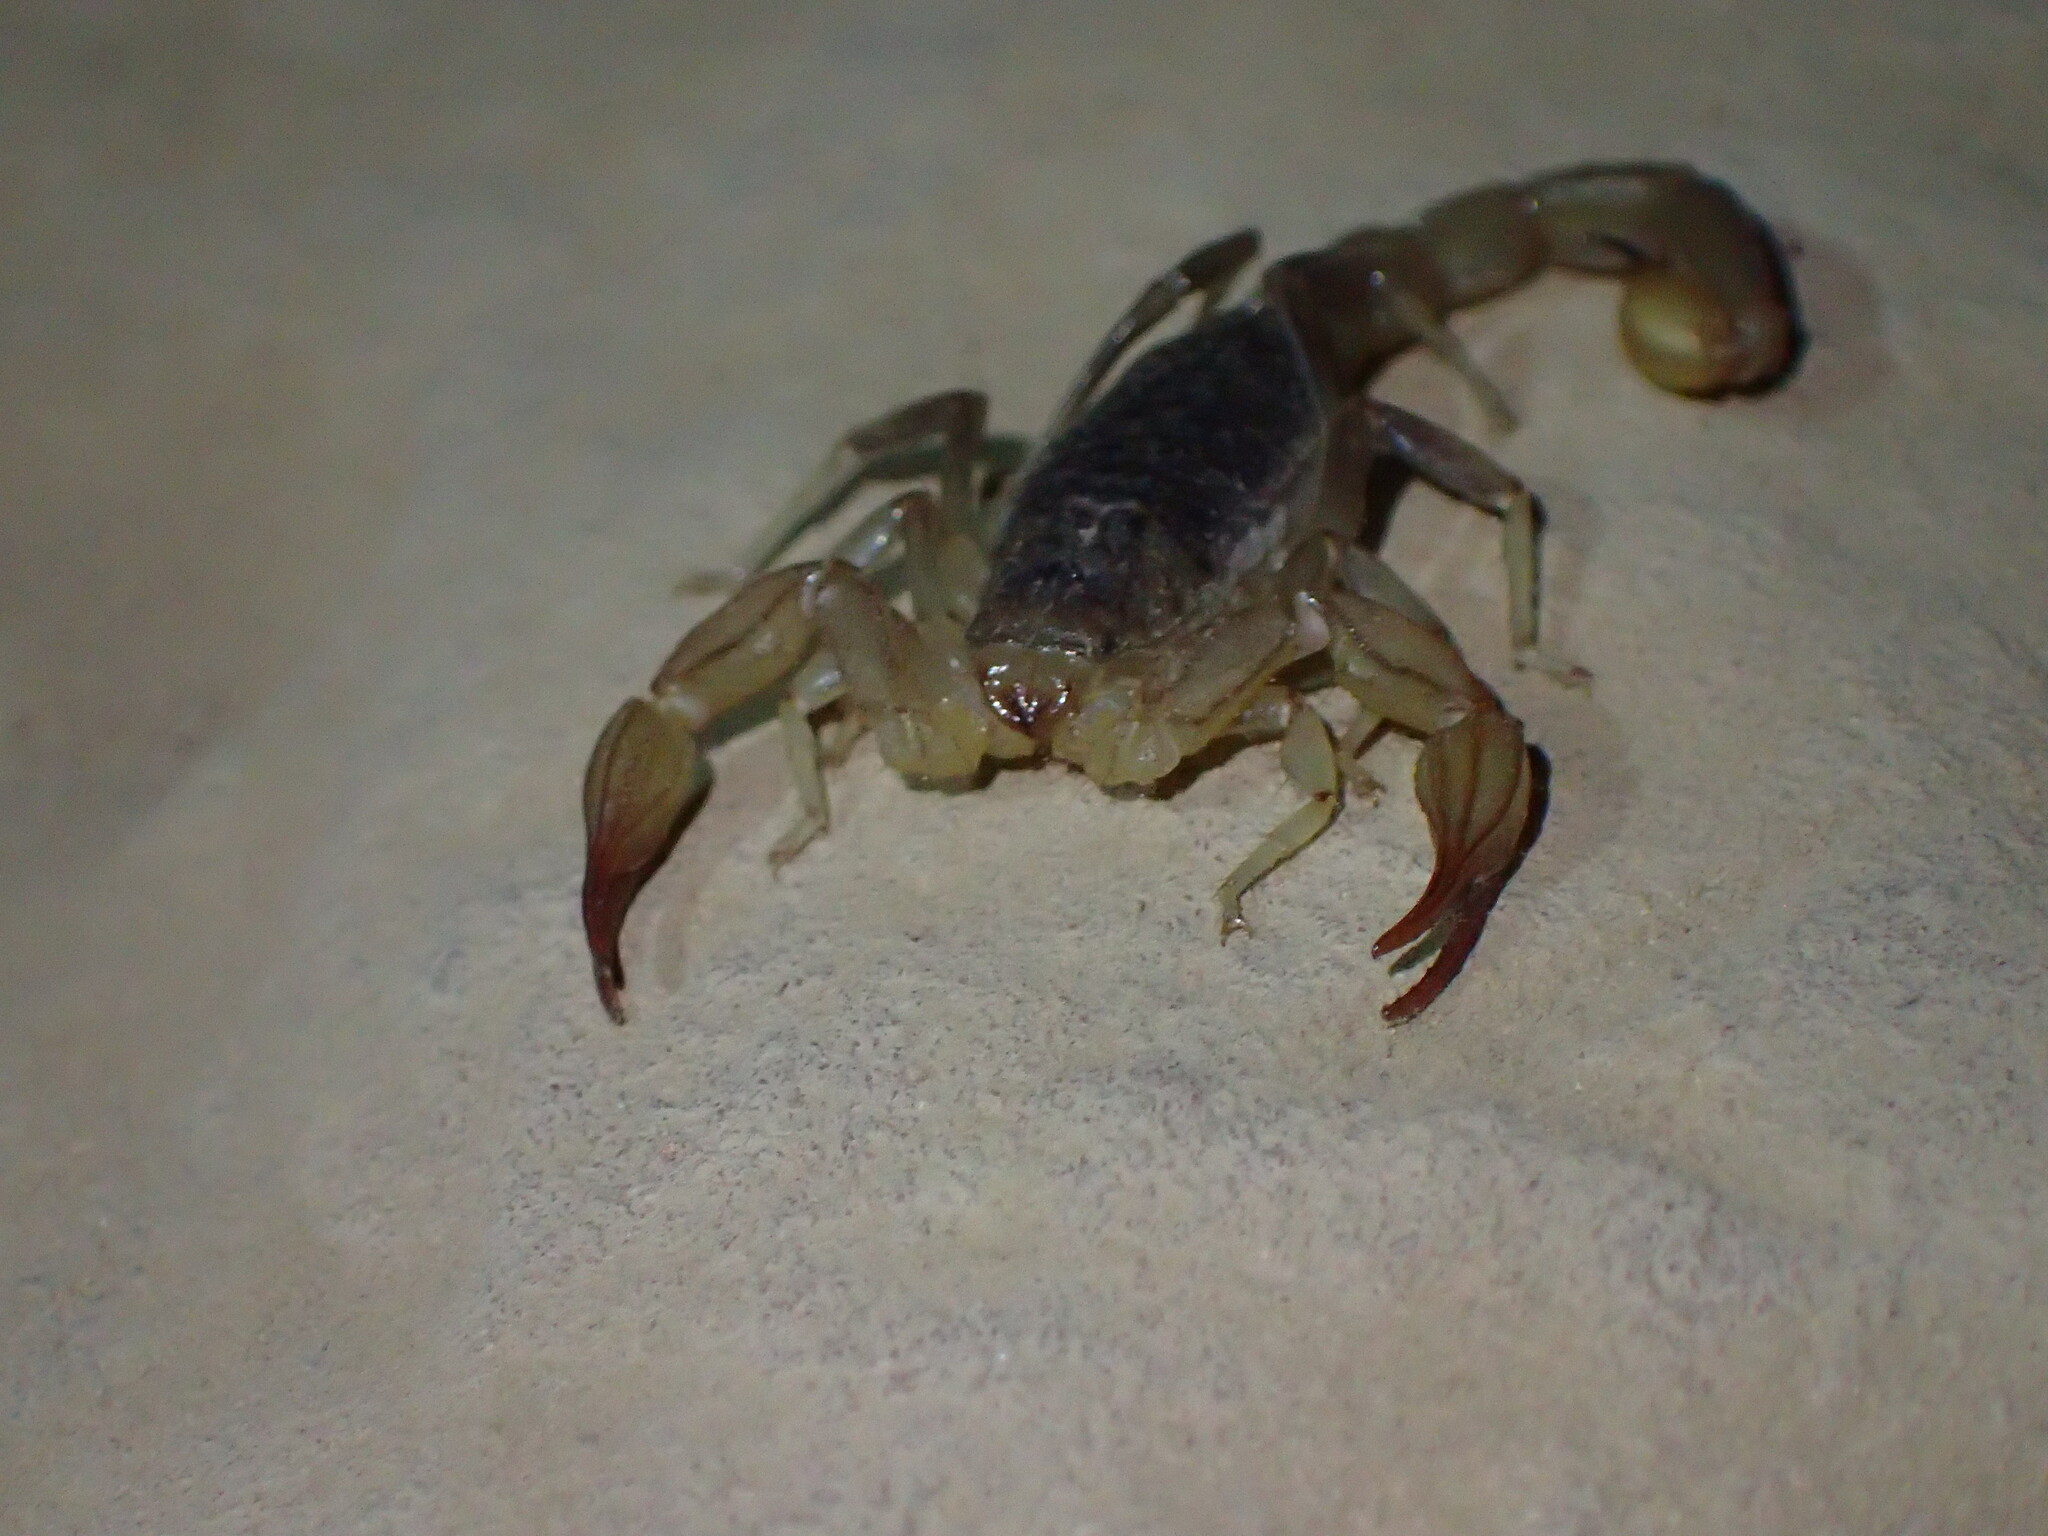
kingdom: Animalia
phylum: Arthropoda
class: Arachnida
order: Scorpiones
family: Vaejovidae
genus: Paruroctonus
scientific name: Paruroctonus silvestrii
